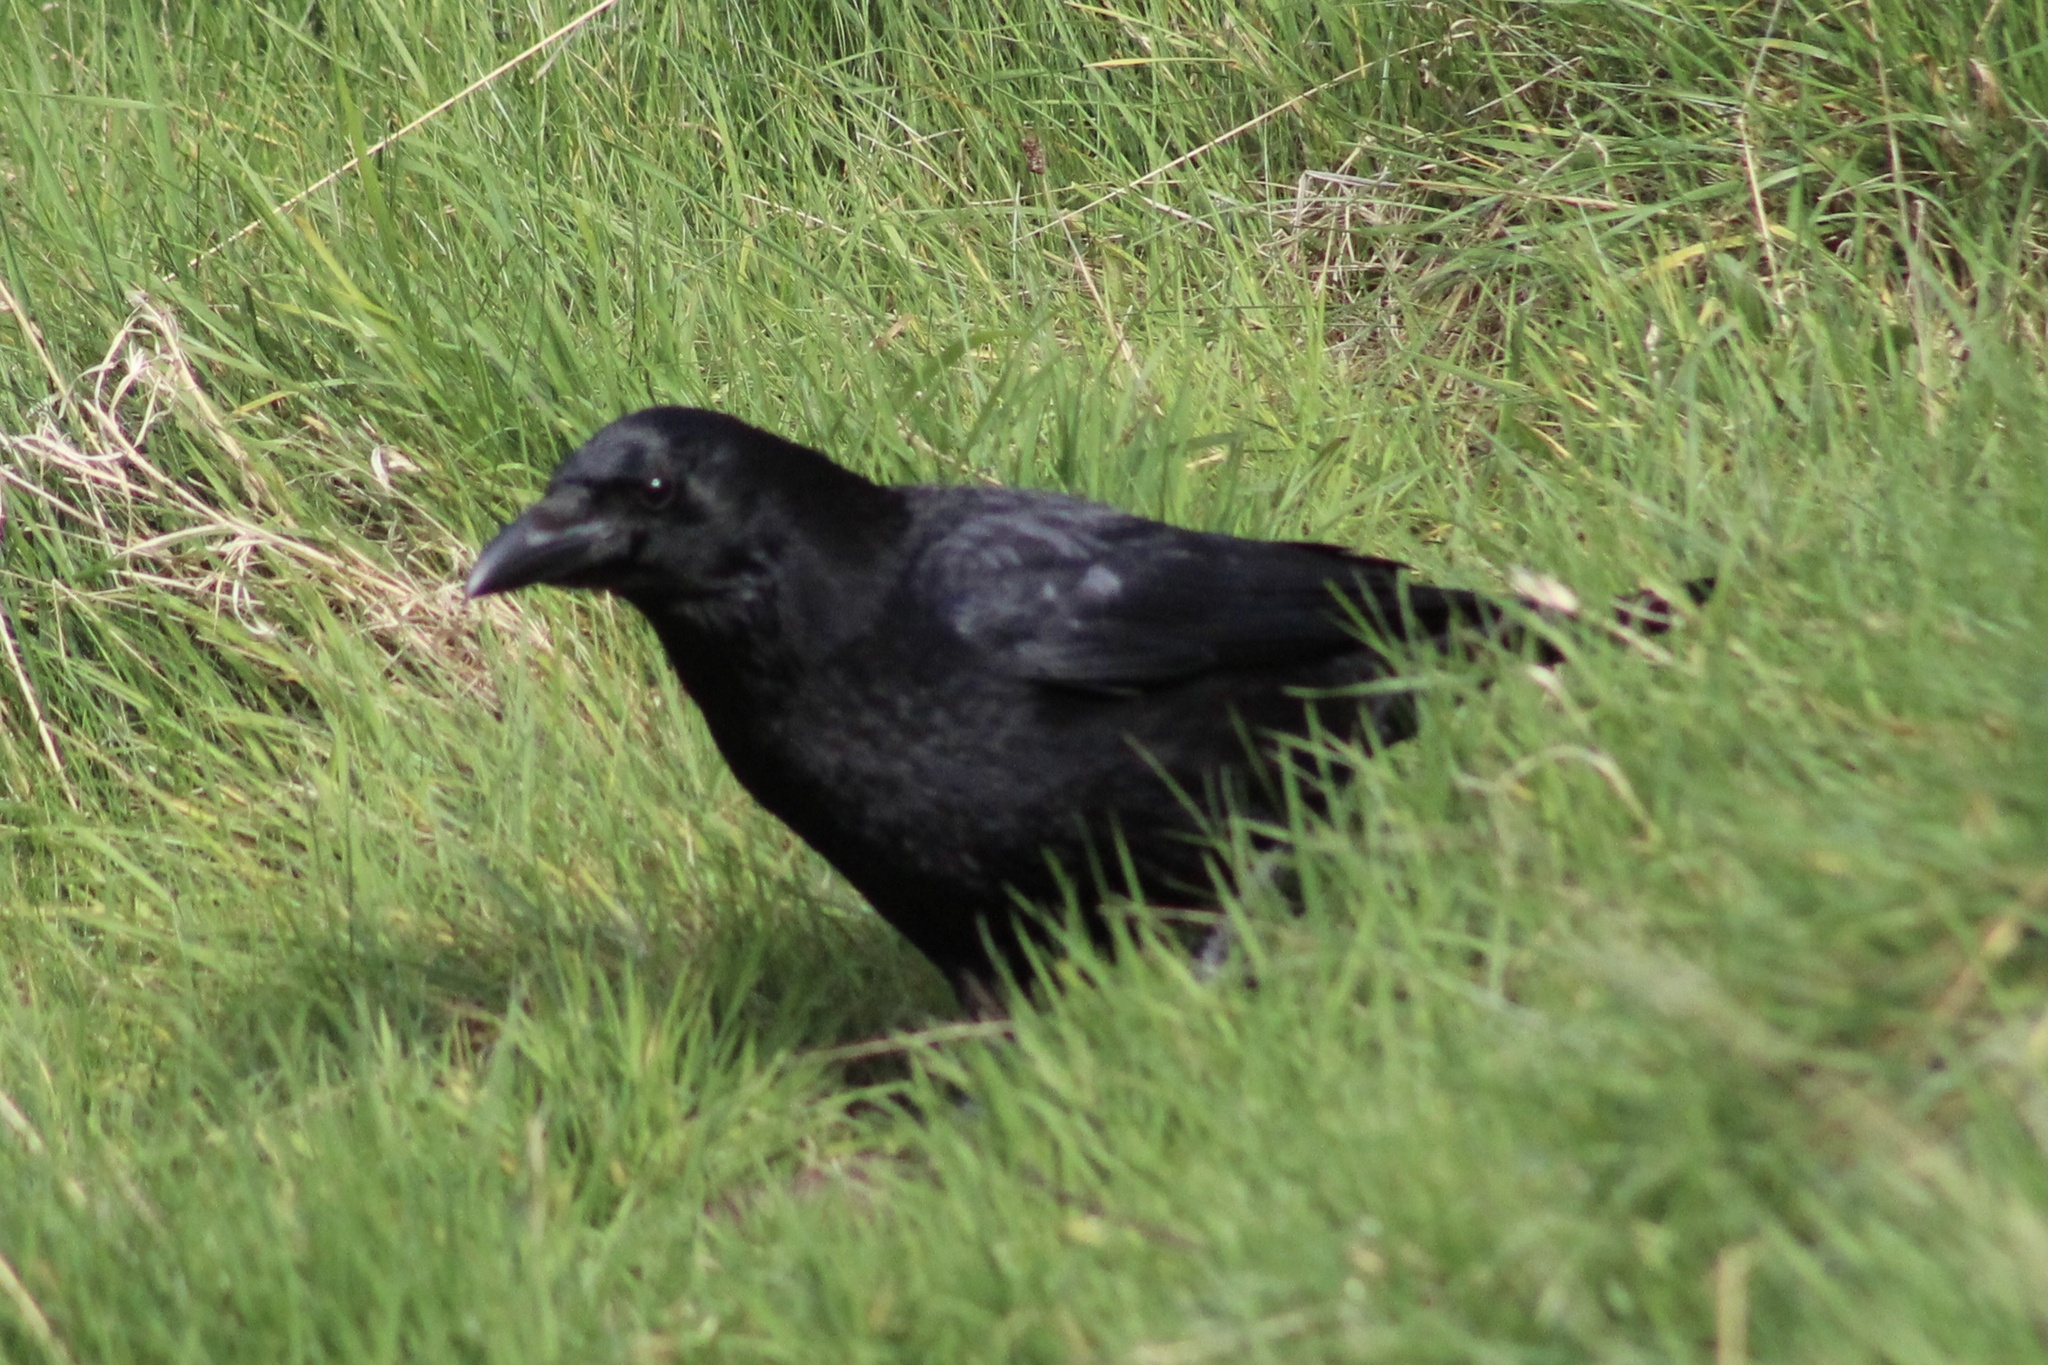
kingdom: Animalia
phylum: Chordata
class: Aves
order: Passeriformes
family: Corvidae
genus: Corvus
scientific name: Corvus corone
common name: Carrion crow
